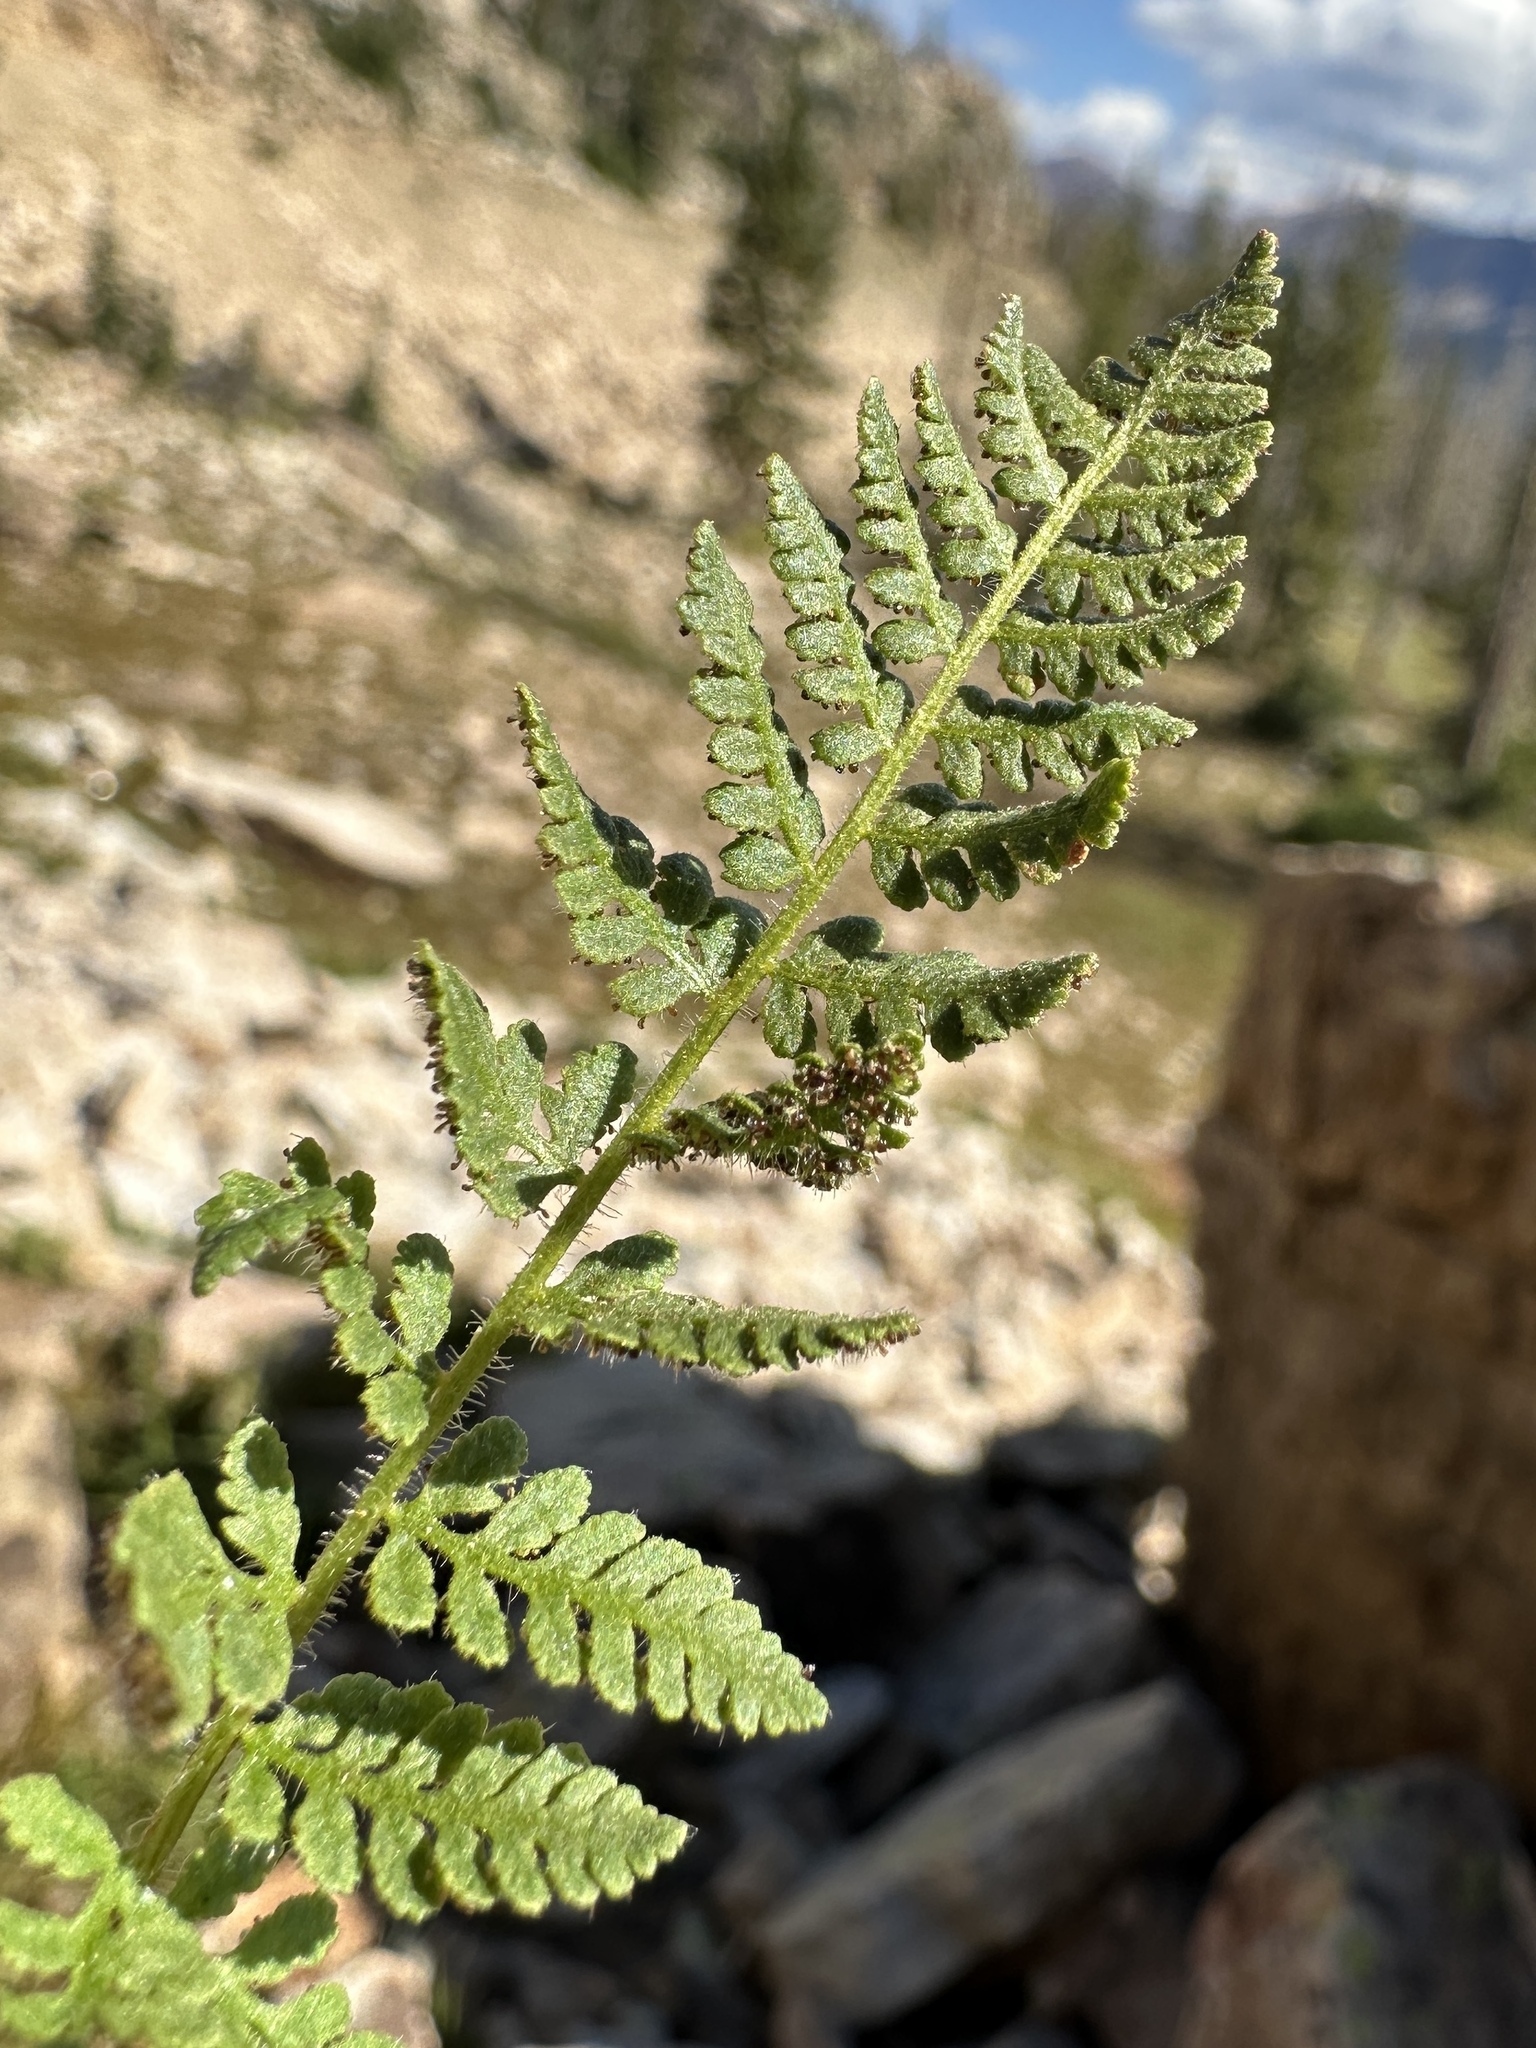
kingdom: Plantae
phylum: Tracheophyta
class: Polypodiopsida
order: Polypodiales
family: Woodsiaceae
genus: Physematium
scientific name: Physematium scopulinum
